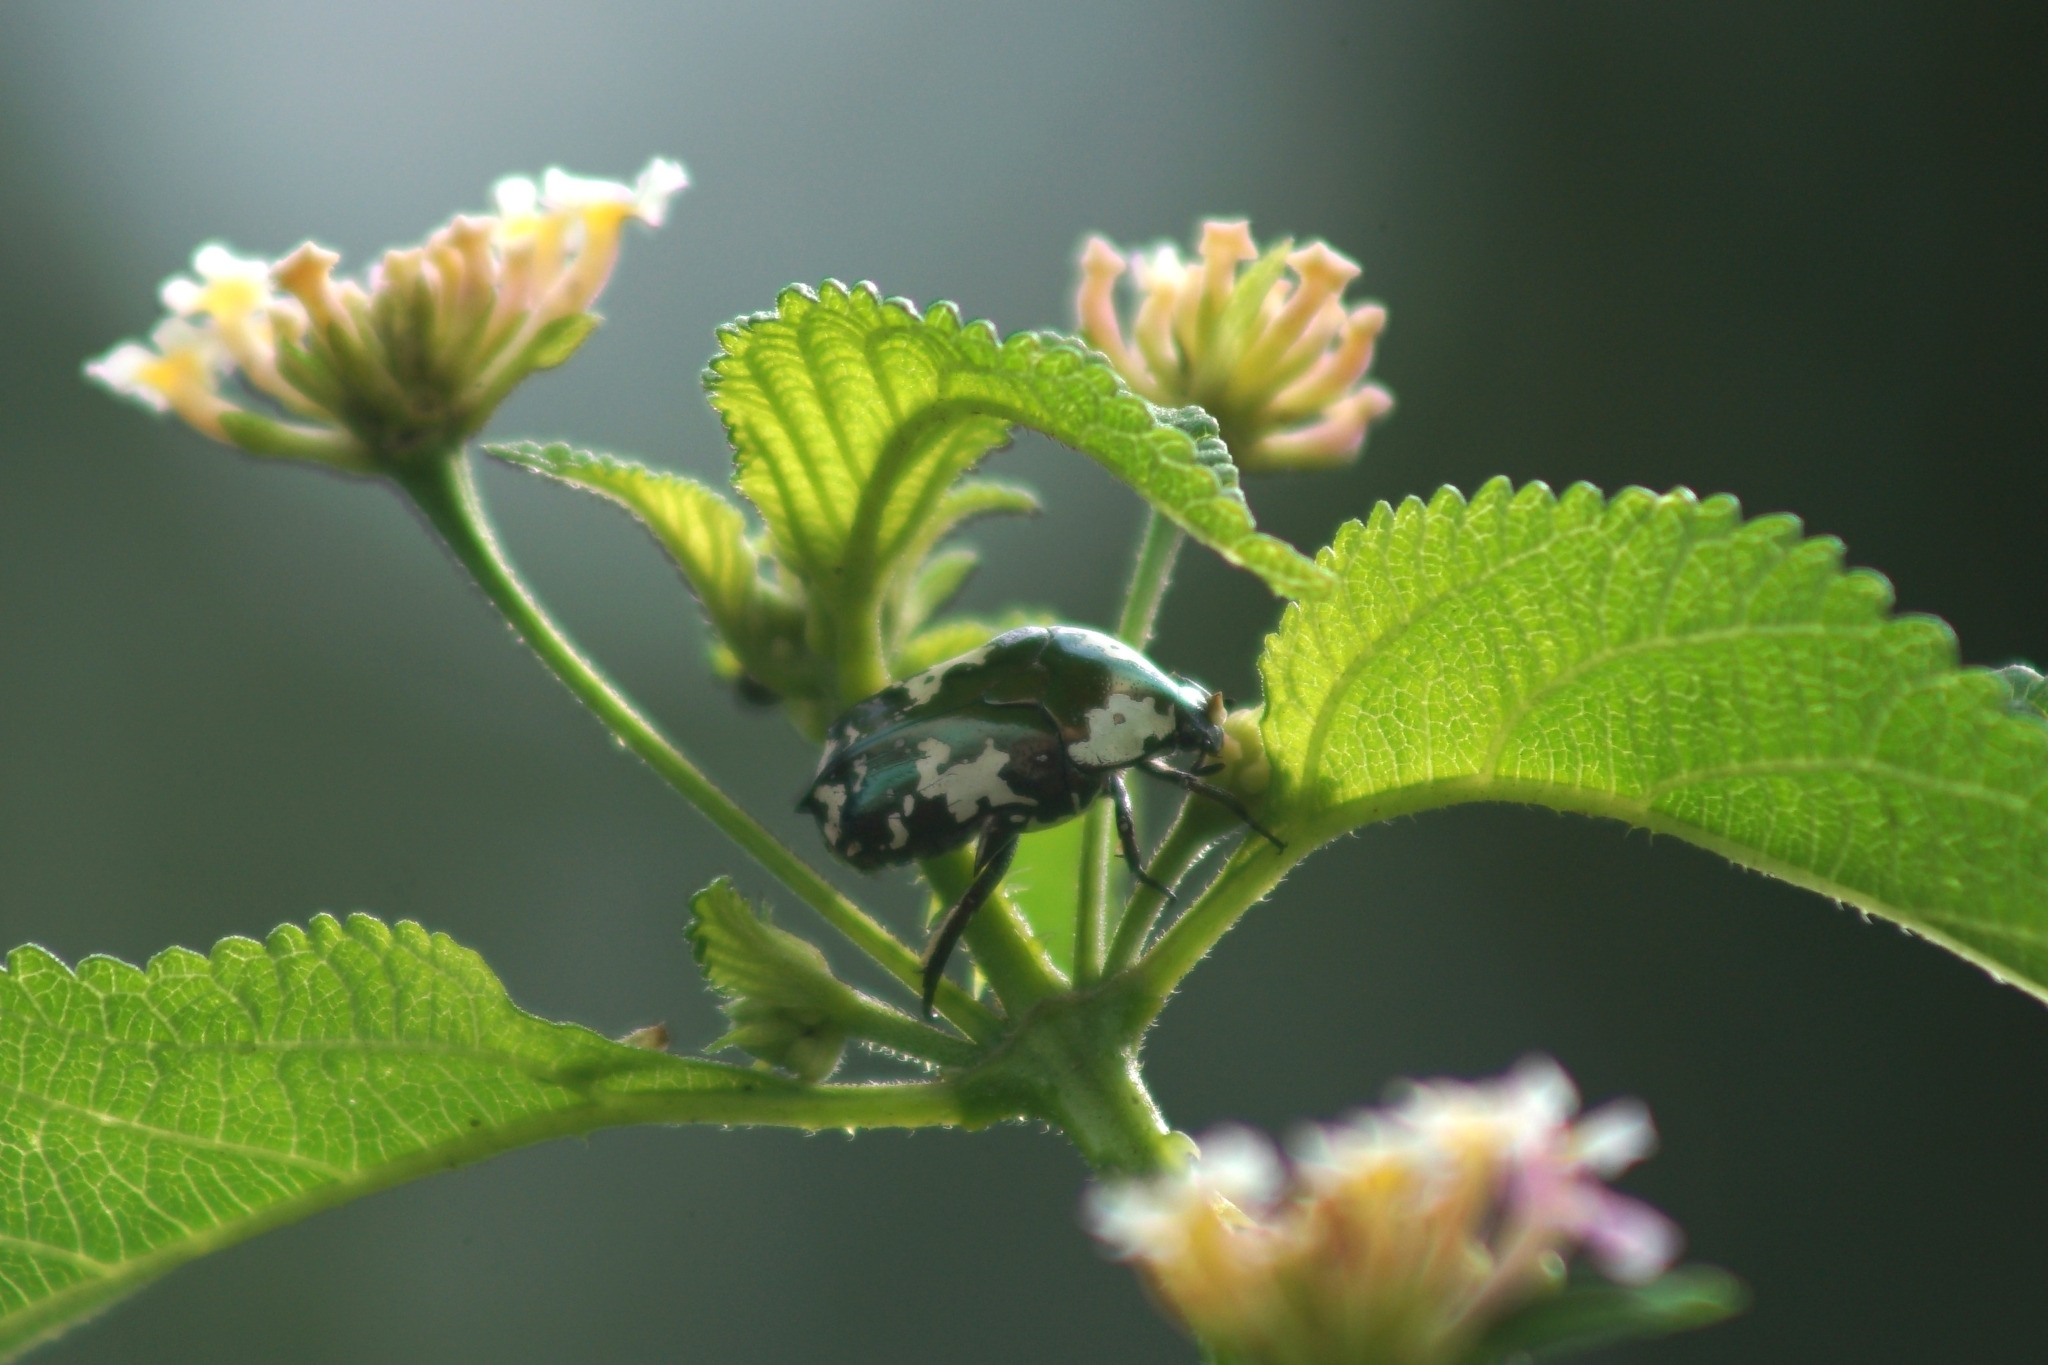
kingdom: Animalia
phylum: Arthropoda
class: Insecta
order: Coleoptera
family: Scarabaeidae
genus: Protaetia
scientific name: Protaetia aurichalcea
